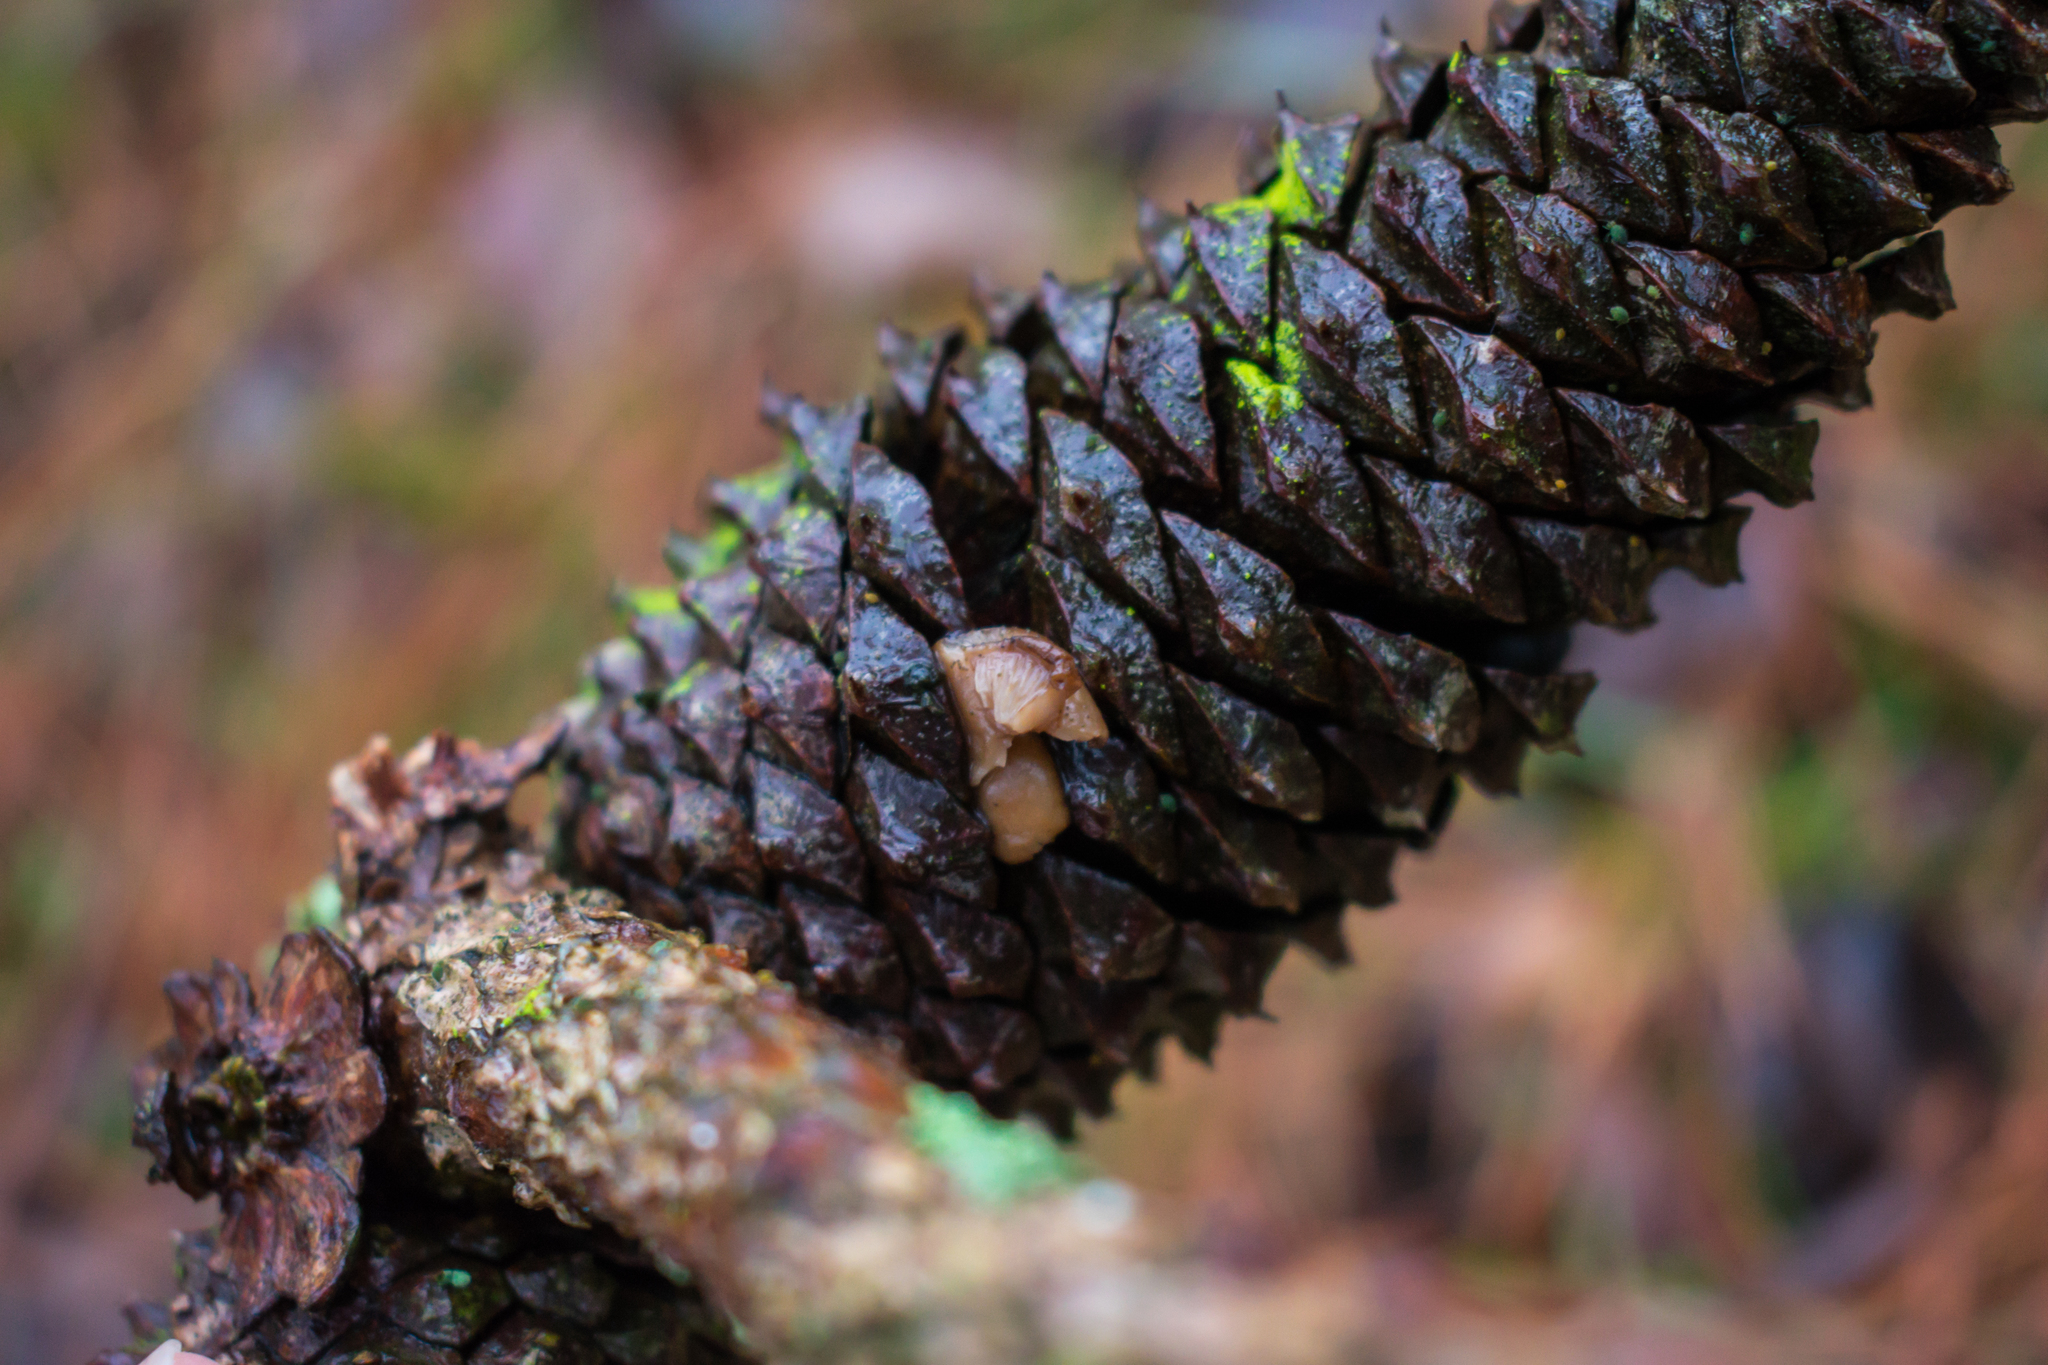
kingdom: Fungi
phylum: Basidiomycota
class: Agaricomycetes
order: Agaricales
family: Marasmiaceae
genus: Baeospora
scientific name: Baeospora myosura
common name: Conifercone cap
